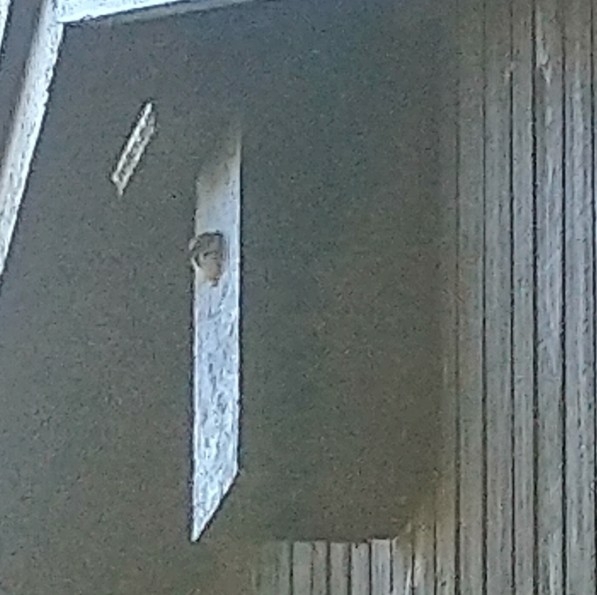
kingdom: Animalia
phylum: Chordata
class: Aves
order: Passeriformes
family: Passeridae
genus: Passer
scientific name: Passer montanus
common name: Eurasian tree sparrow
